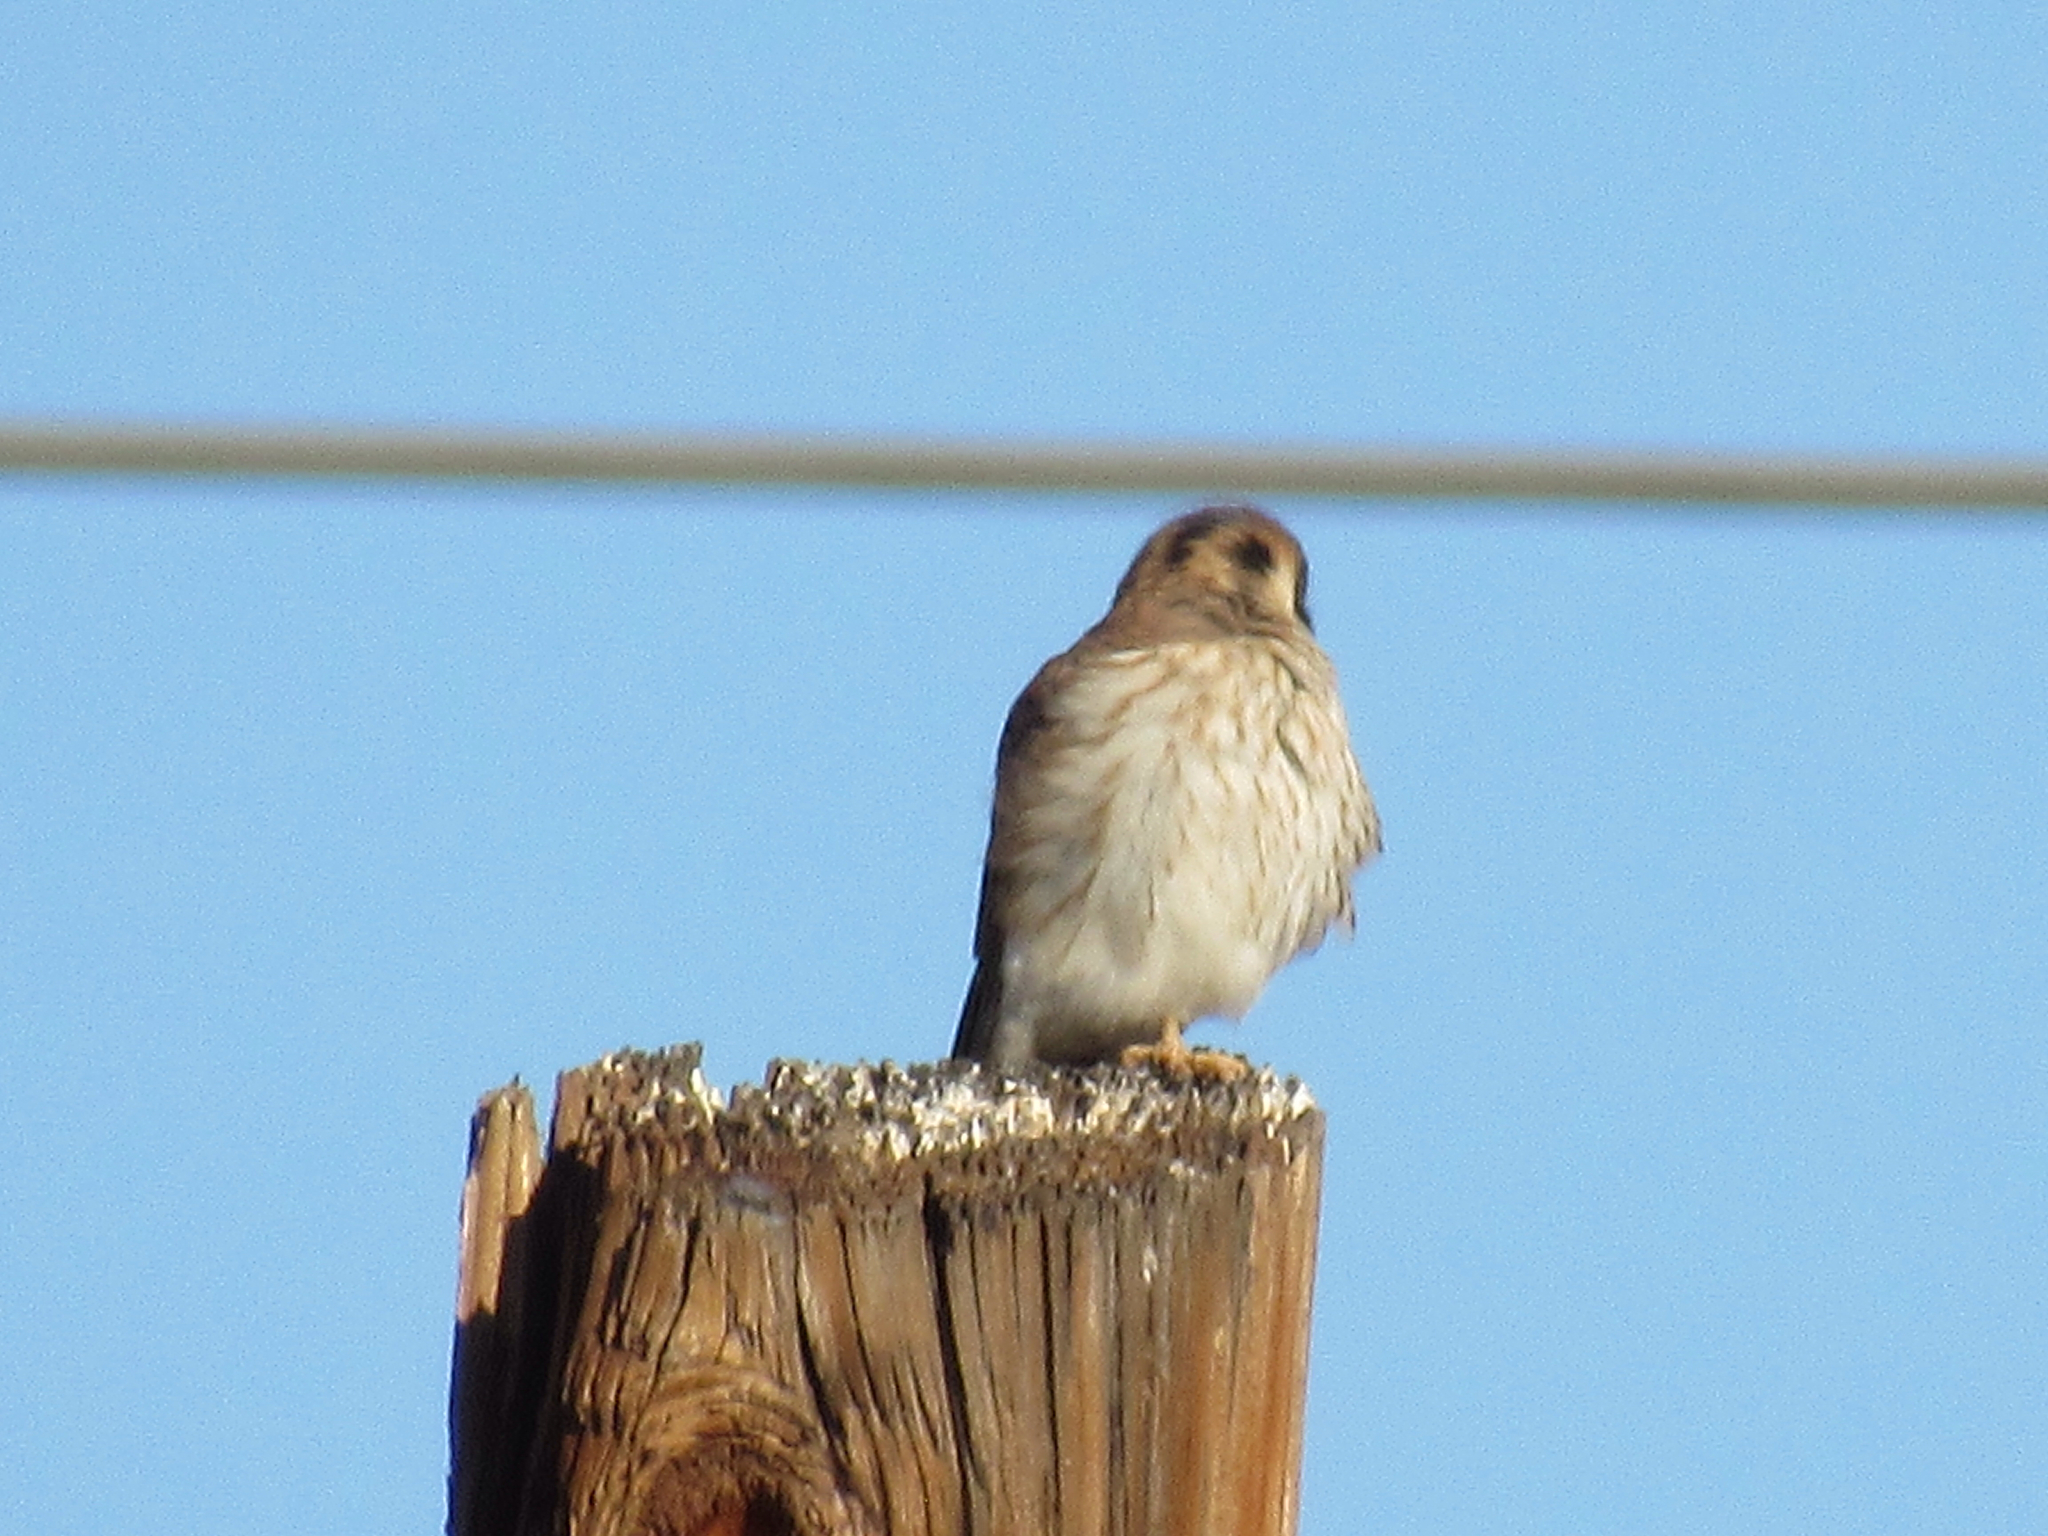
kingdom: Animalia
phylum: Chordata
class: Aves
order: Falconiformes
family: Falconidae
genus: Falco
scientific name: Falco sparverius
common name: American kestrel
